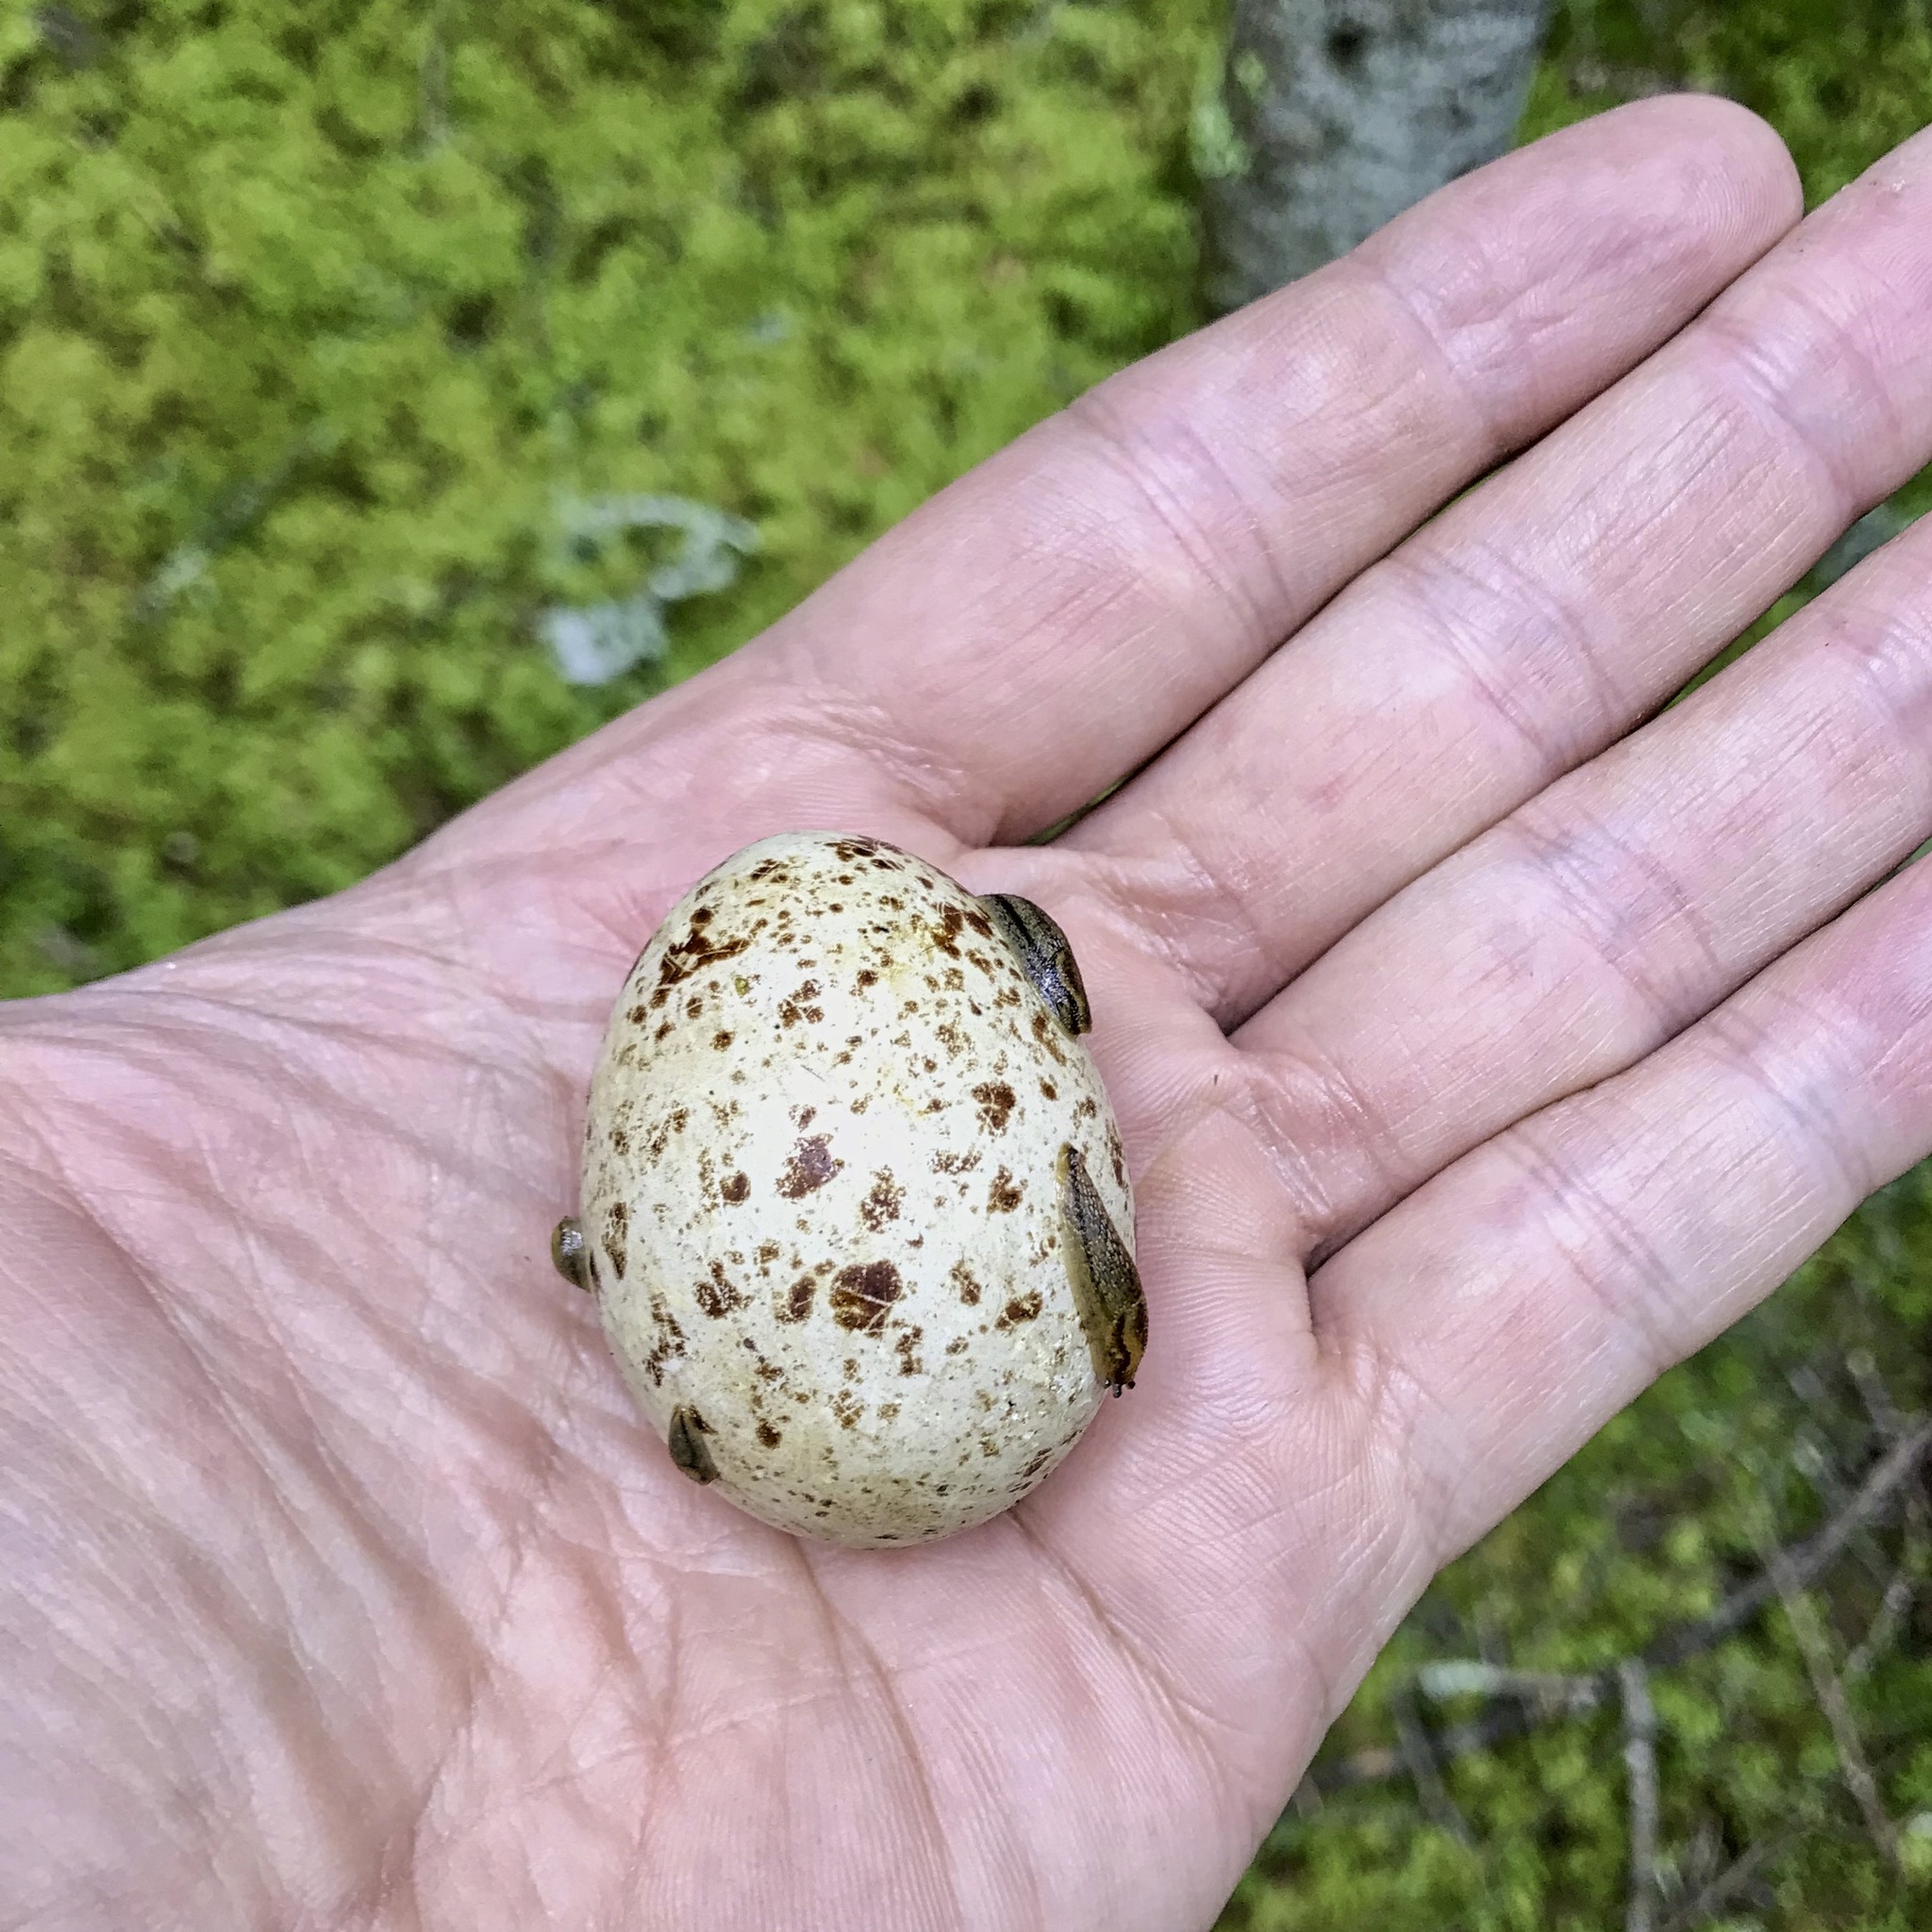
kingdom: Animalia
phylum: Chordata
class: Aves
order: Galliformes
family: Phasianidae
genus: Canachites
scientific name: Canachites canadensis
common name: Spruce grouse
